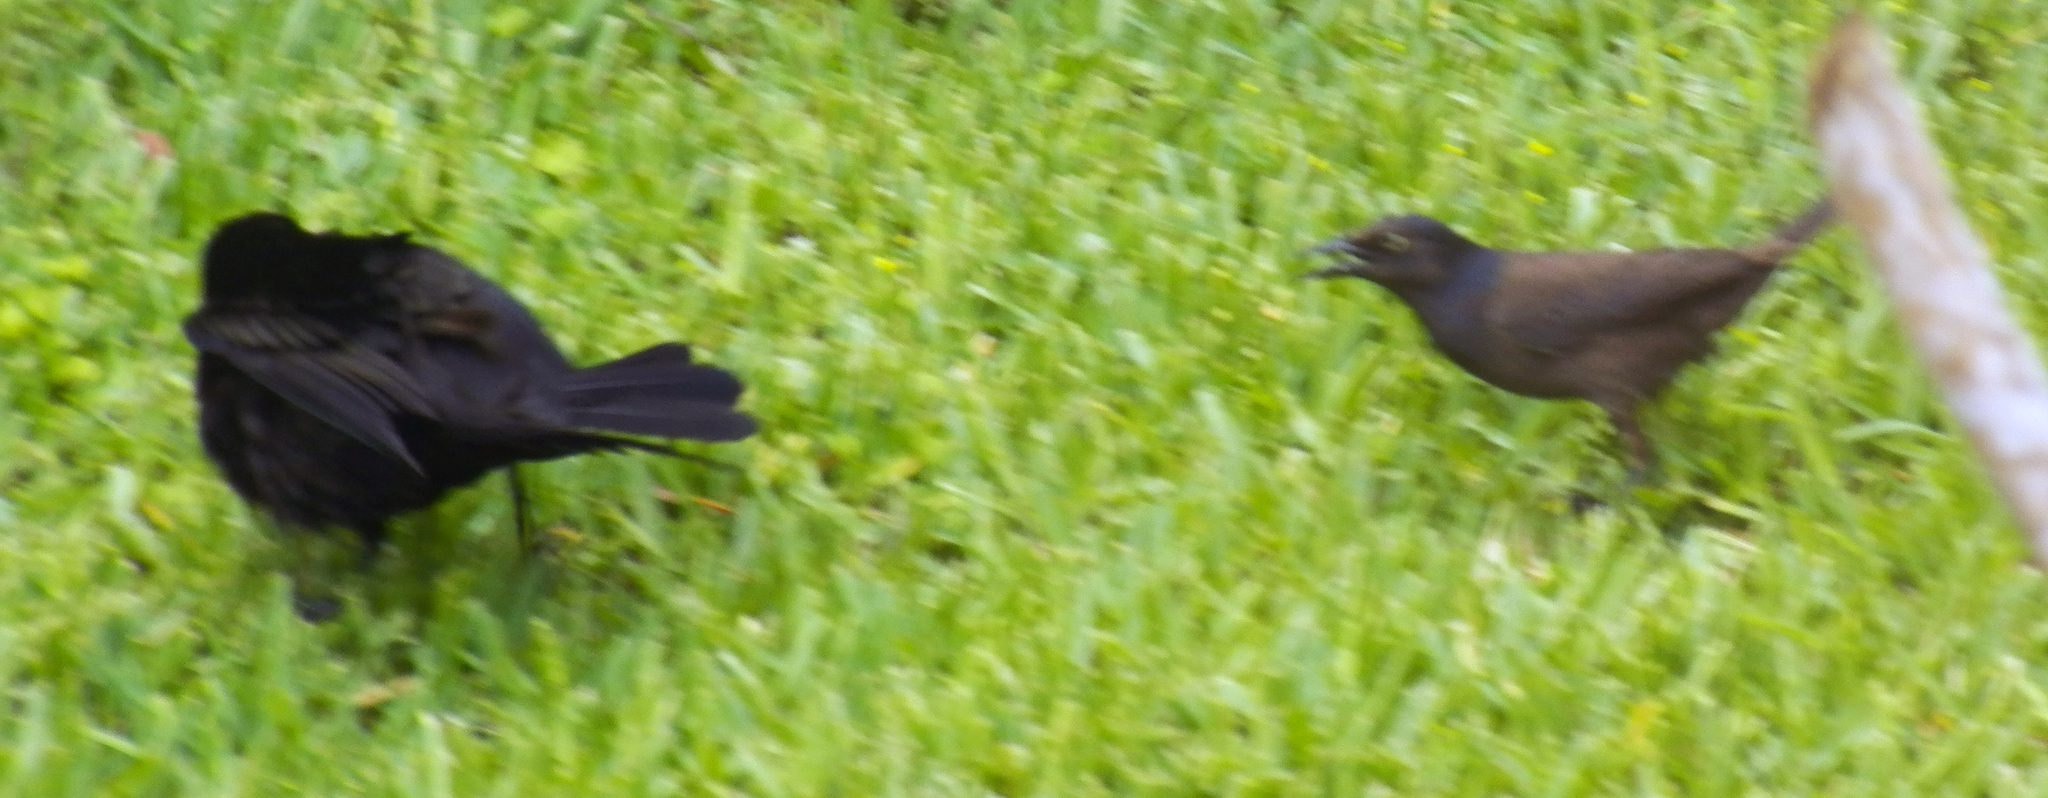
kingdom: Animalia
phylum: Chordata
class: Aves
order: Passeriformes
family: Icteridae
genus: Quiscalus
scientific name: Quiscalus quiscula
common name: Common grackle
